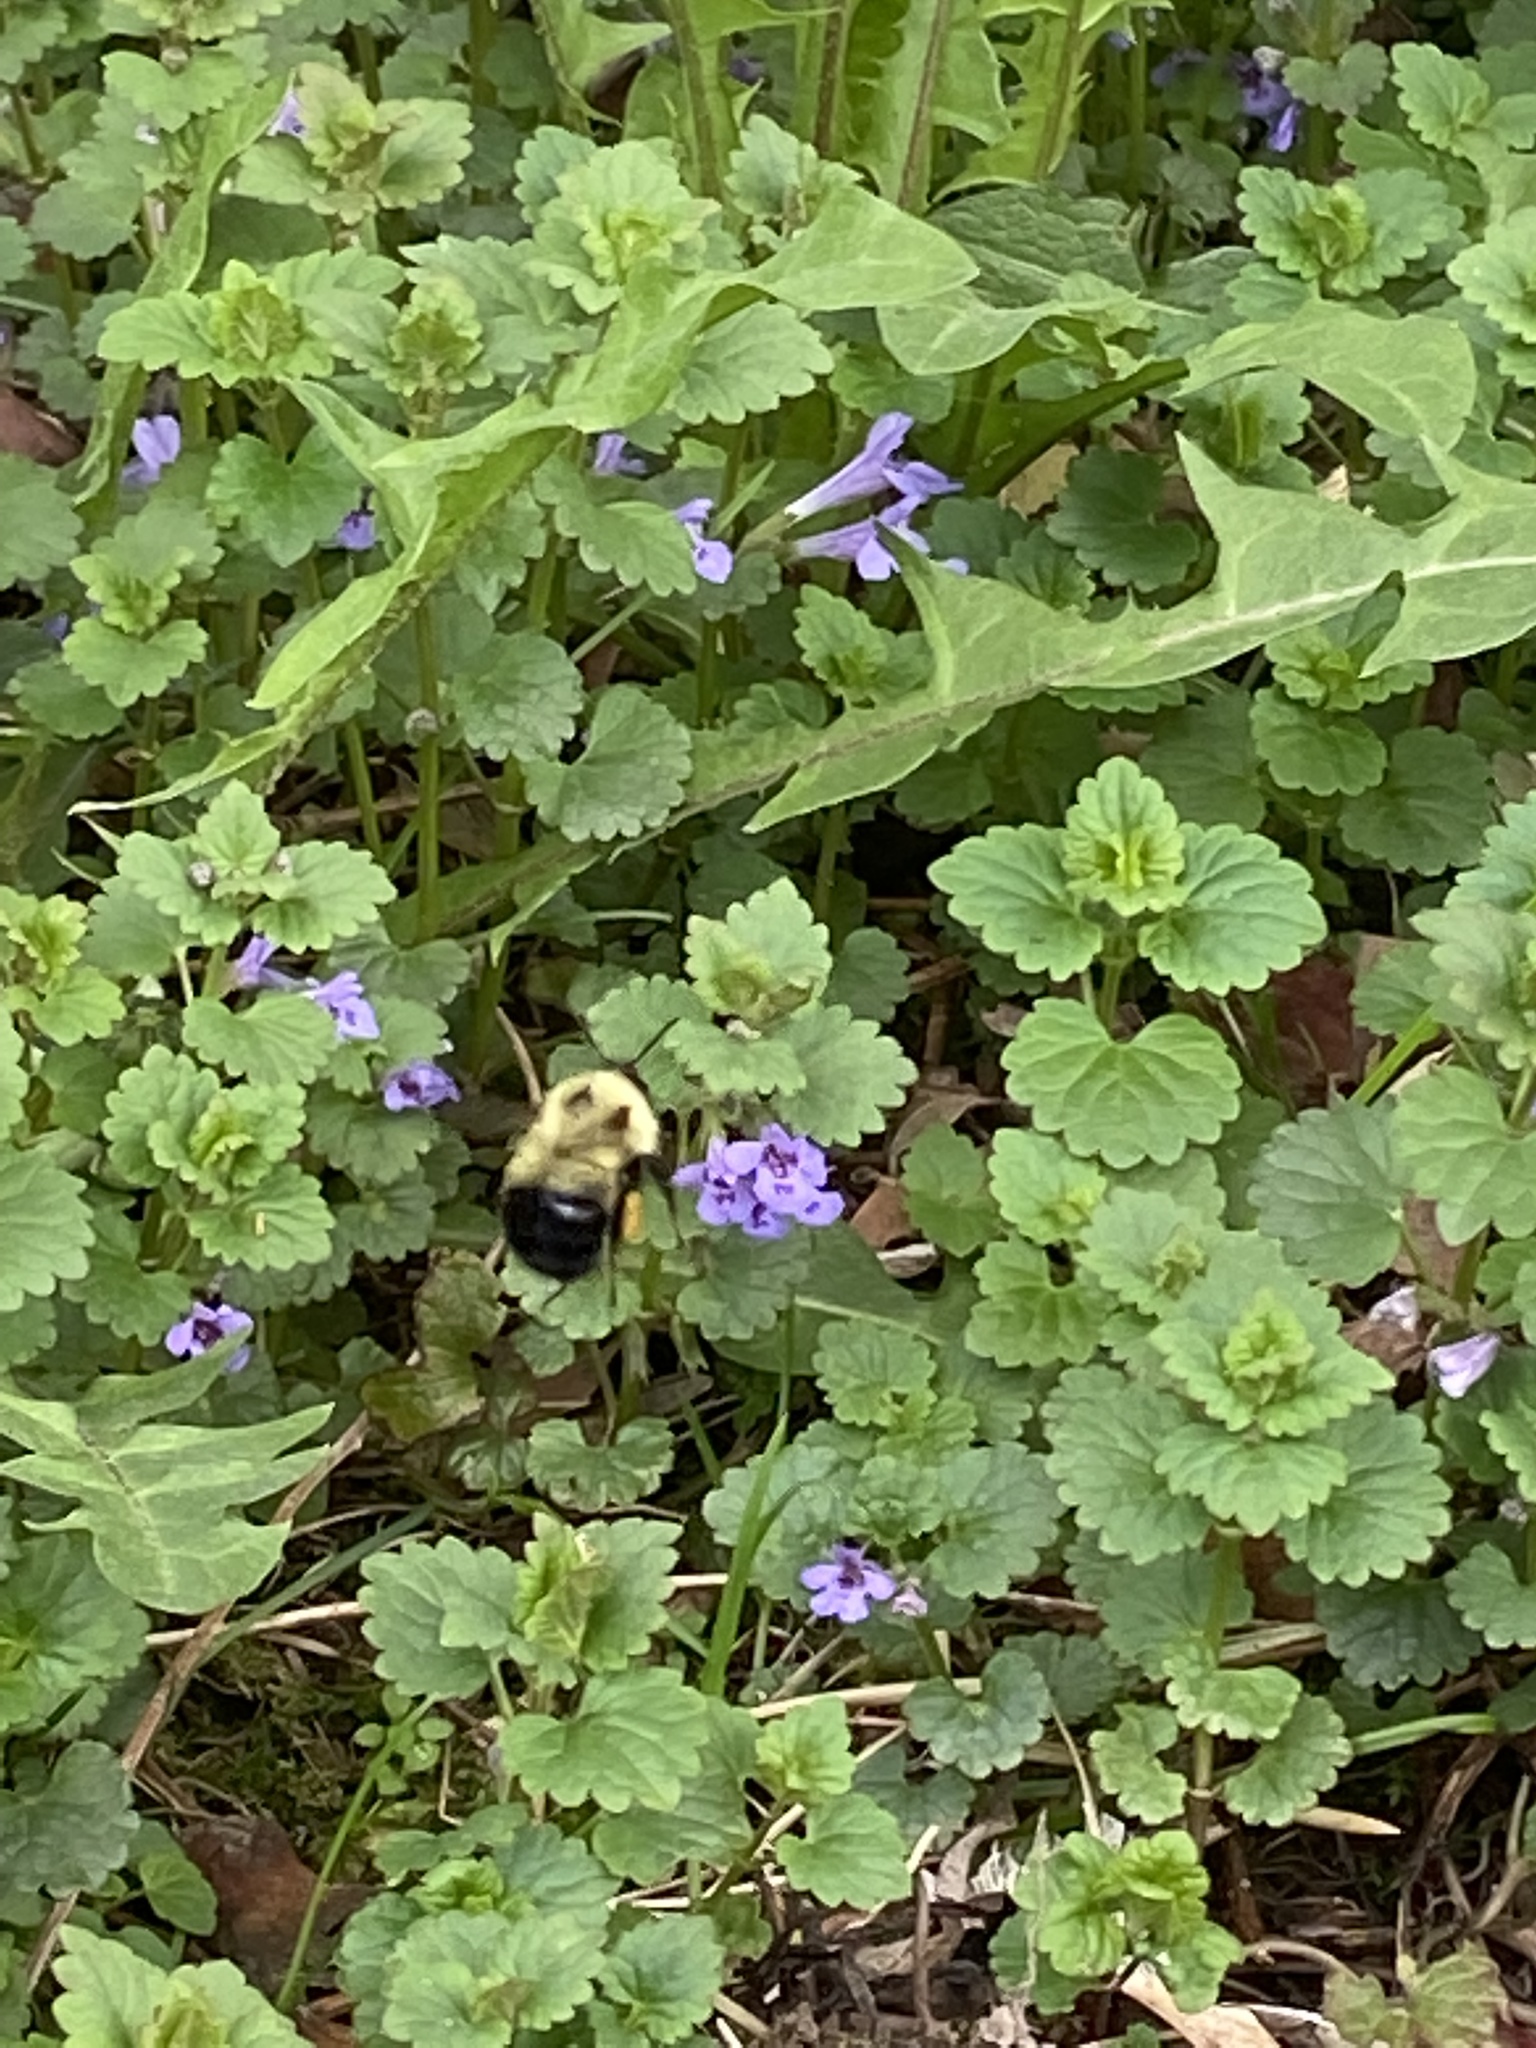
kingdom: Animalia
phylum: Arthropoda
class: Insecta
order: Hymenoptera
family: Apidae
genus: Pyrobombus
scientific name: Pyrobombus
